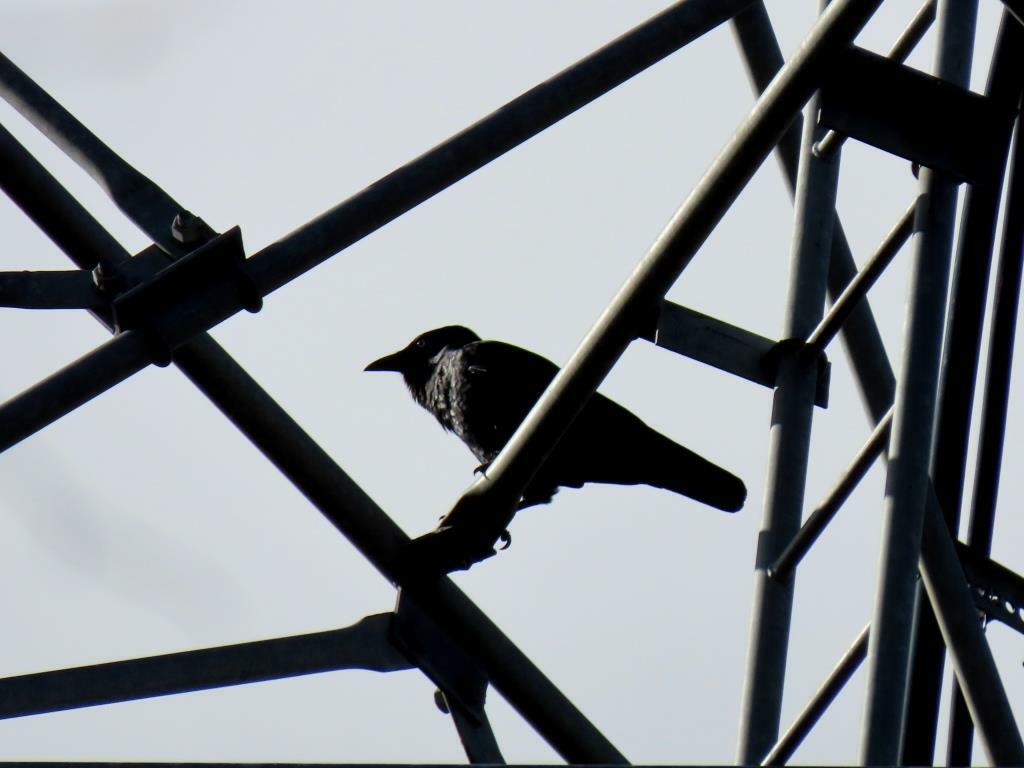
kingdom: Animalia
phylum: Chordata
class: Aves
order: Passeriformes
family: Corvidae
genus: Corvus
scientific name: Corvus mellori
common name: Little raven
